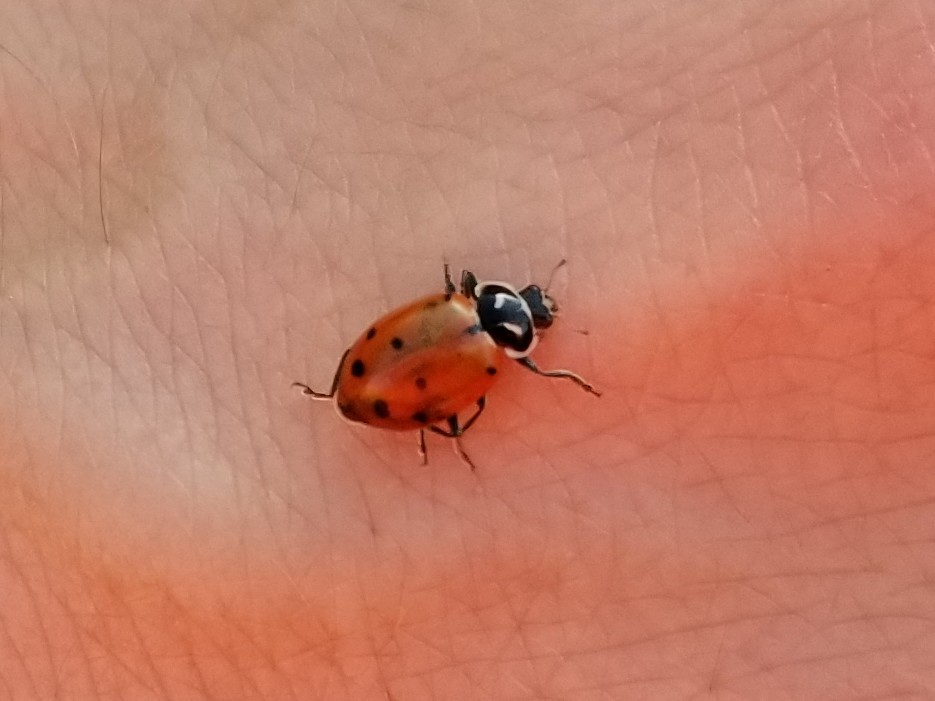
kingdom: Animalia
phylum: Arthropoda
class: Insecta
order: Coleoptera
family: Coccinellidae
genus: Hippodamia
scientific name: Hippodamia convergens
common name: Convergent lady beetle
